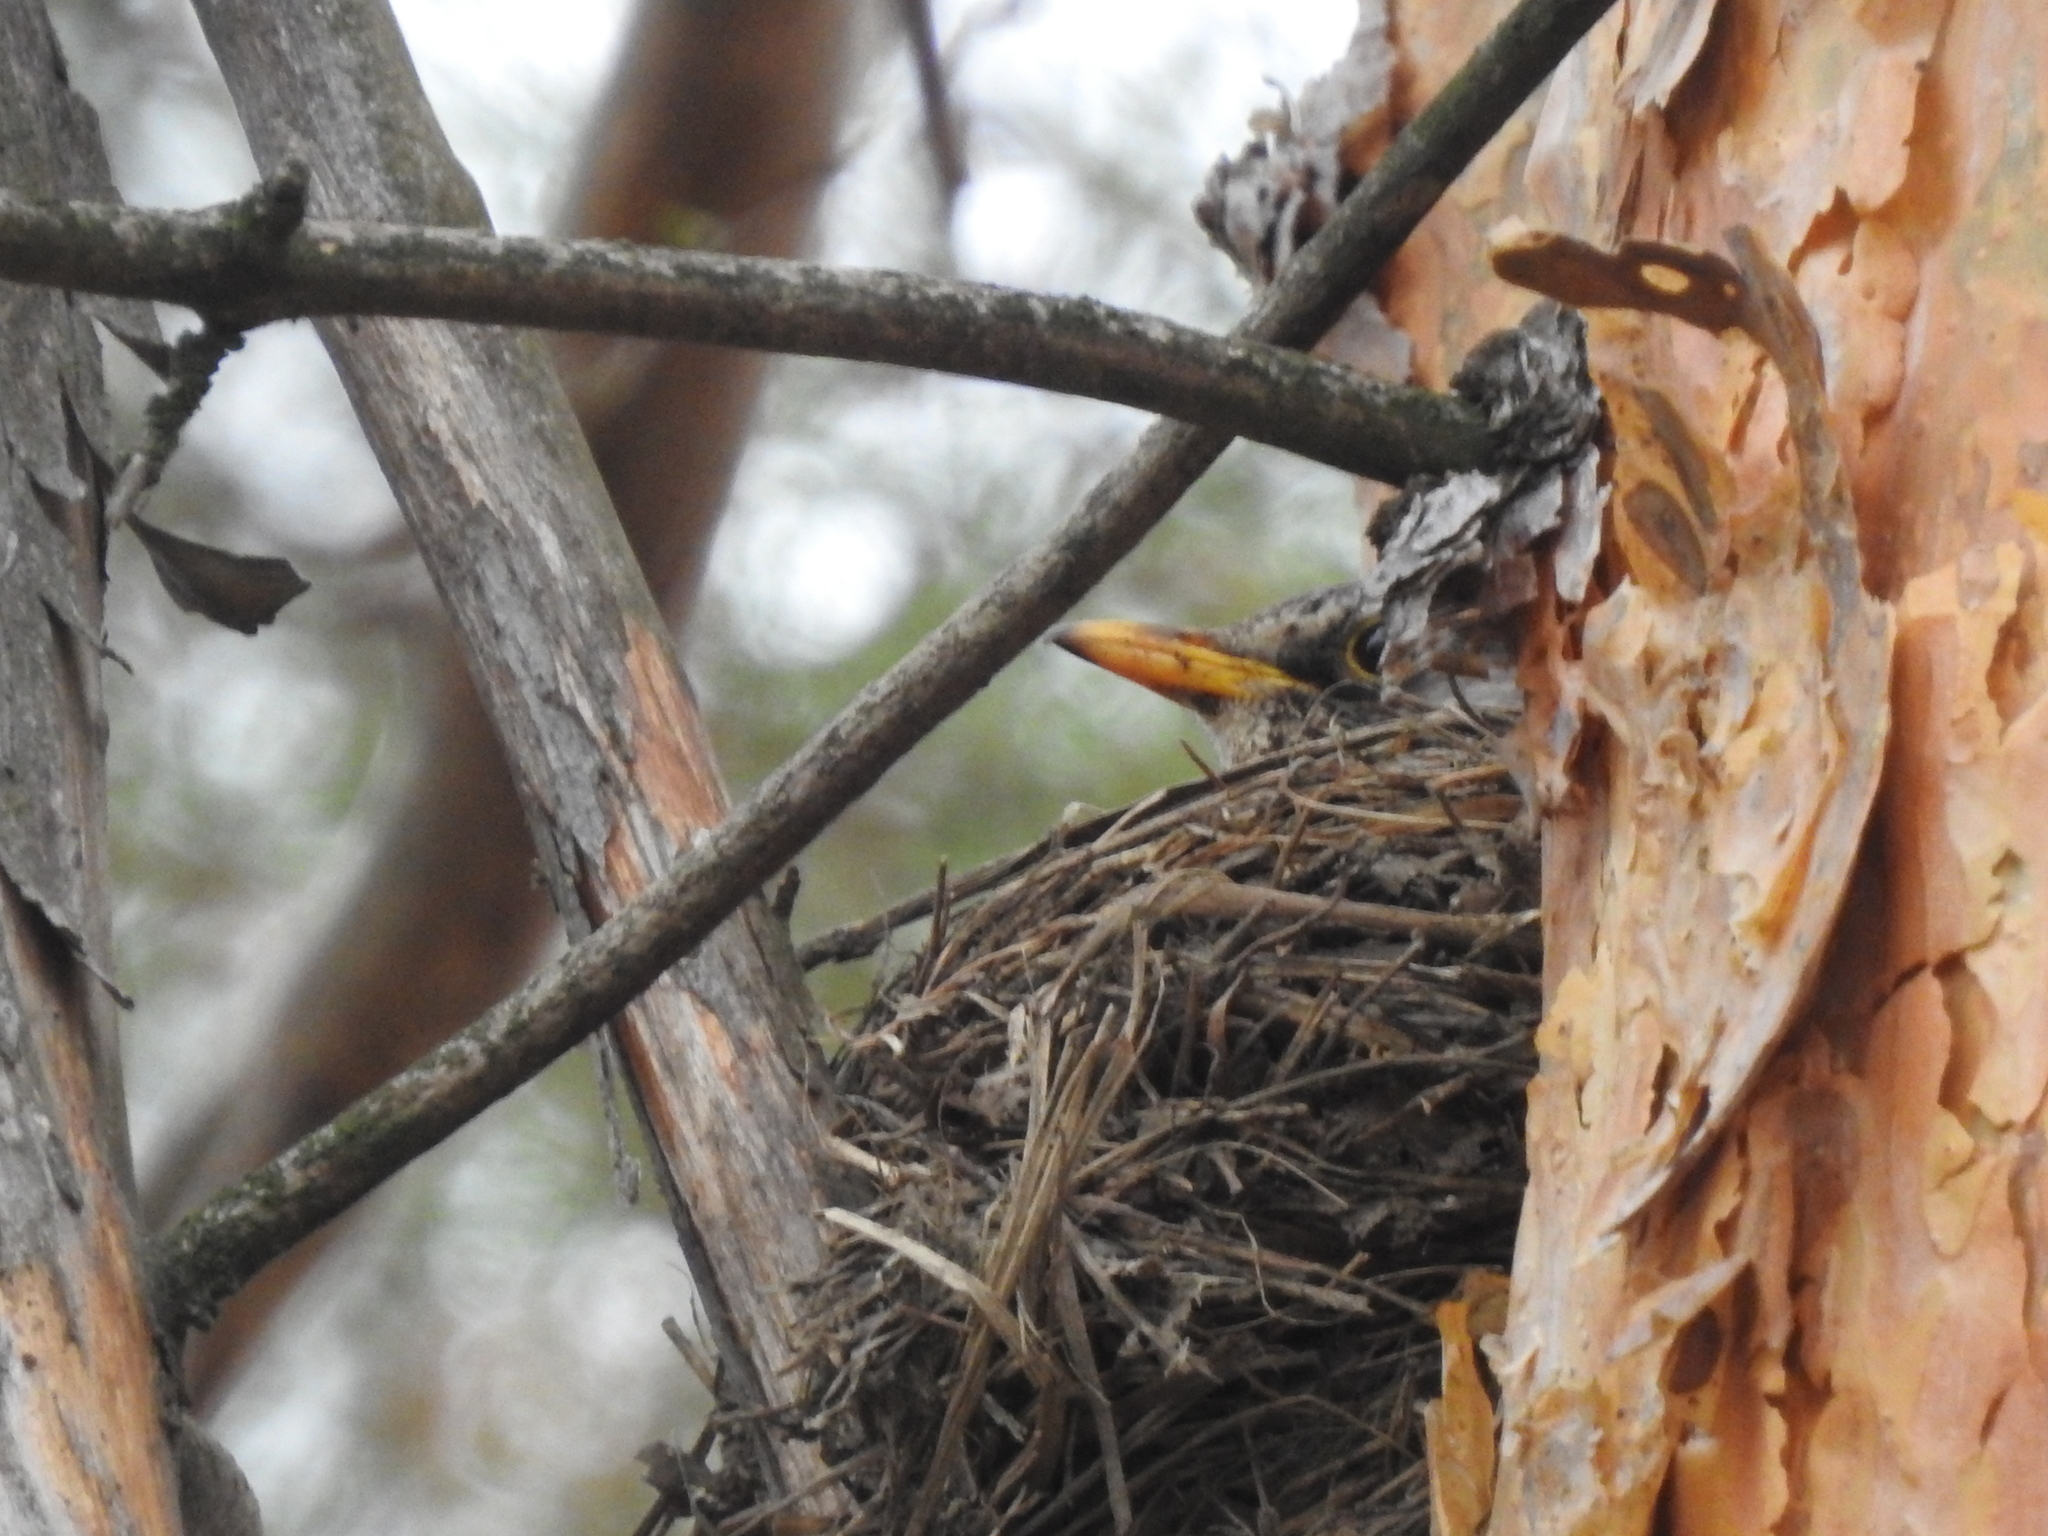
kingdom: Animalia
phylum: Chordata
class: Aves
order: Passeriformes
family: Turdidae
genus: Turdus
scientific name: Turdus pilaris
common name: Fieldfare
